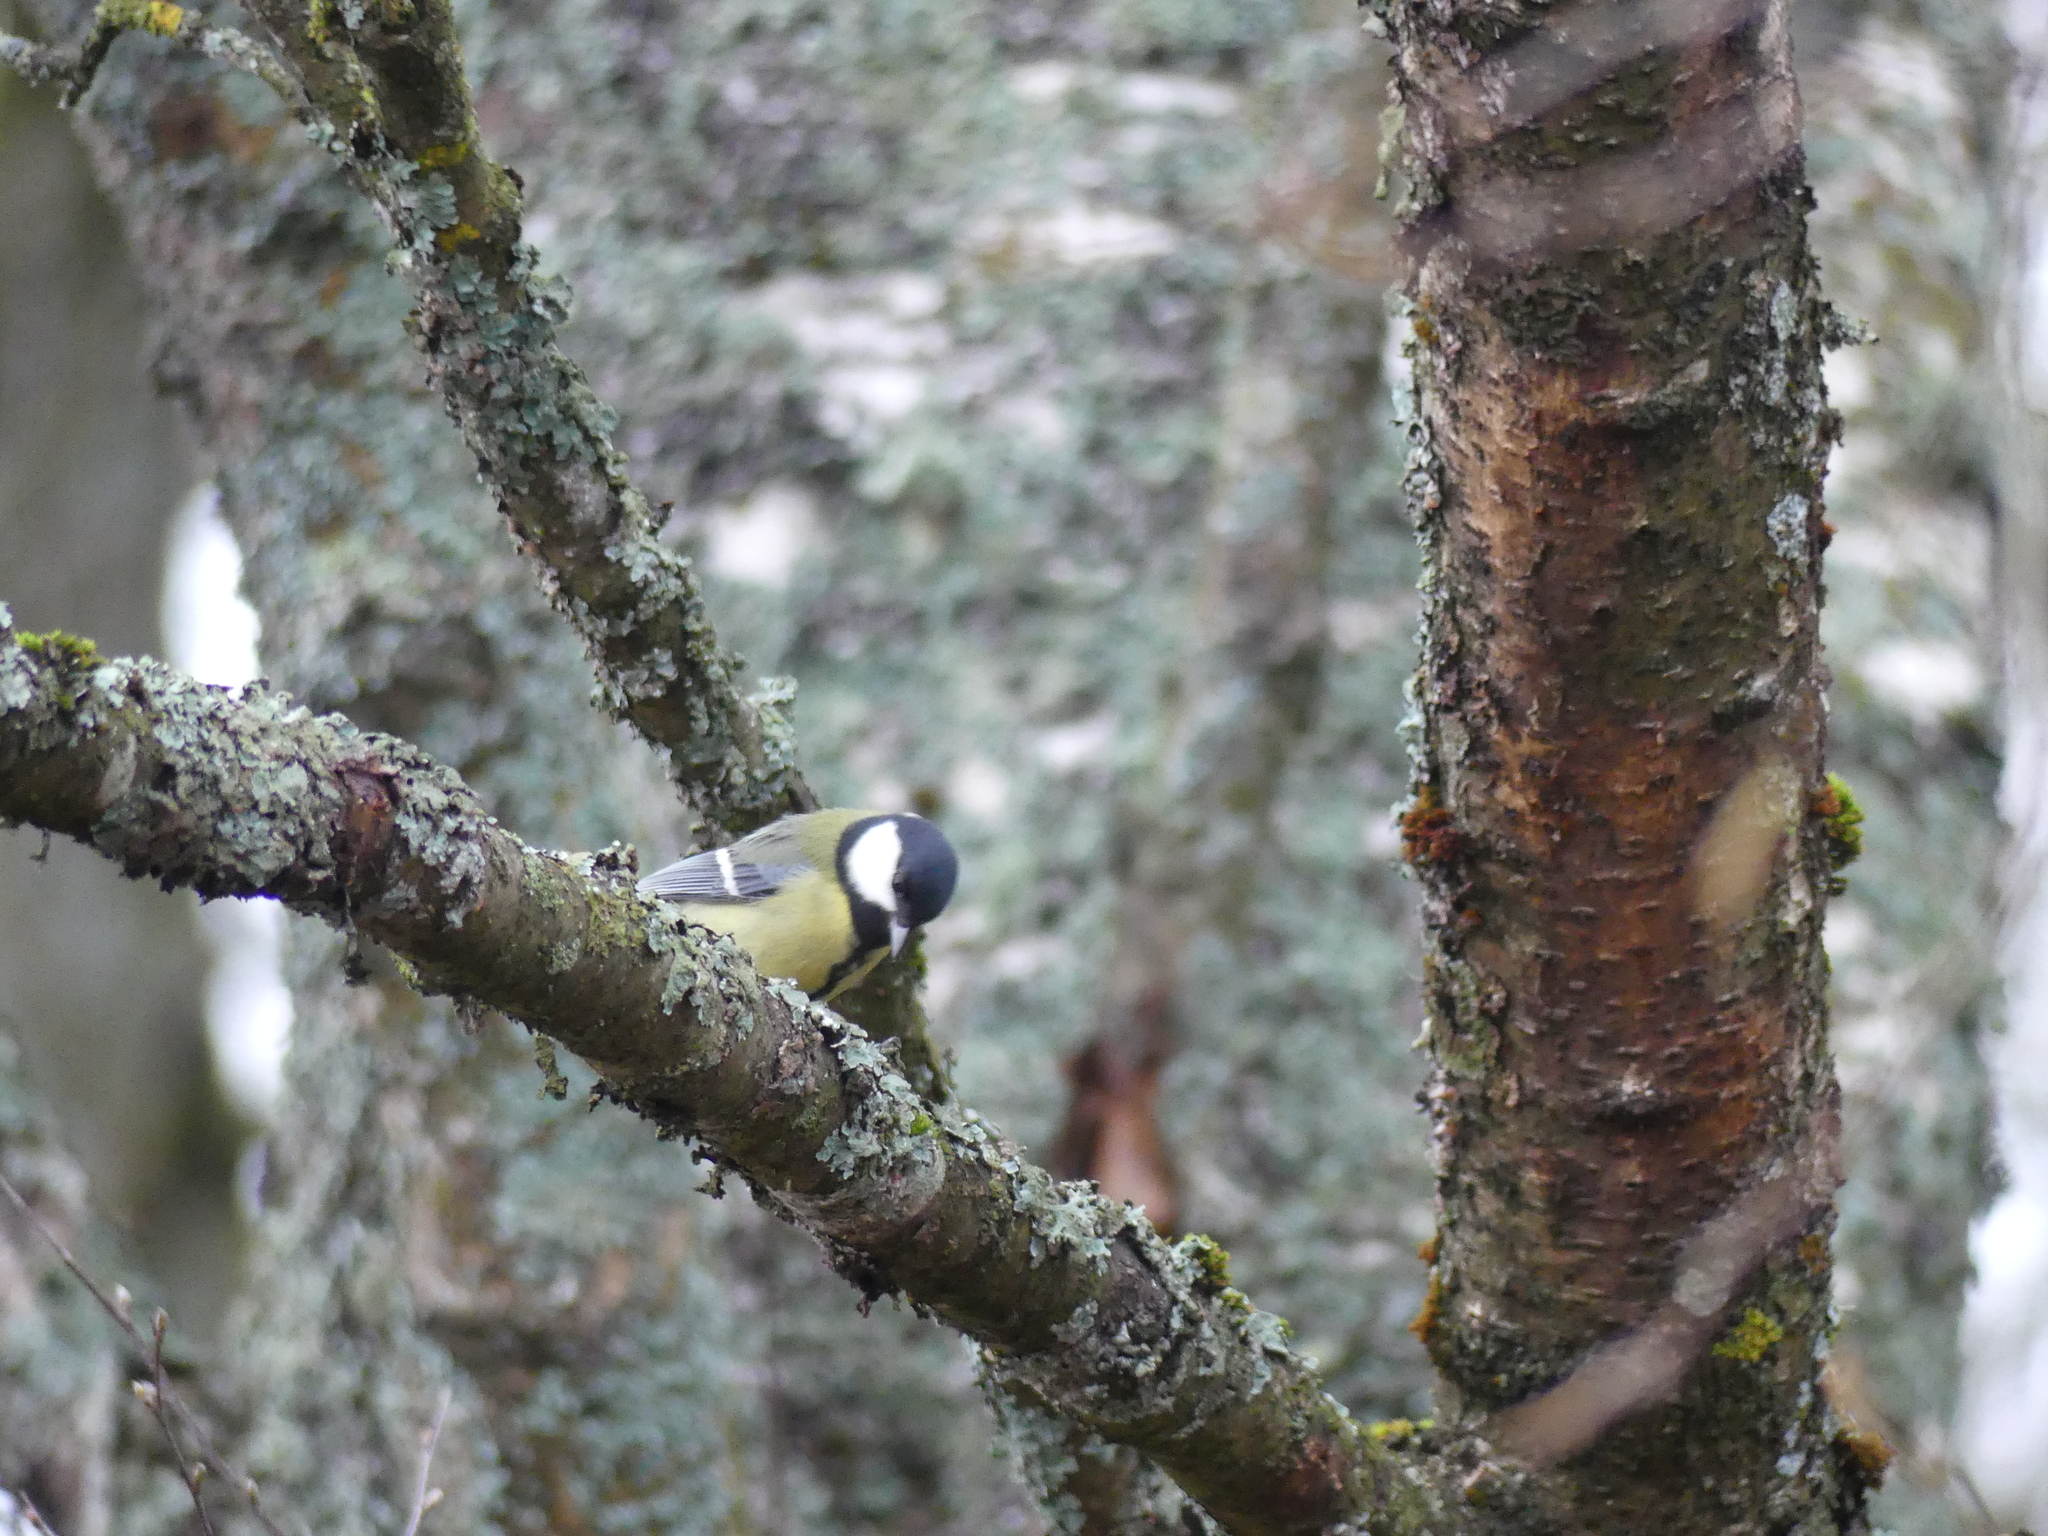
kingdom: Animalia
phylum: Chordata
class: Aves
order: Passeriformes
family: Paridae
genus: Parus
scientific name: Parus major
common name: Great tit
